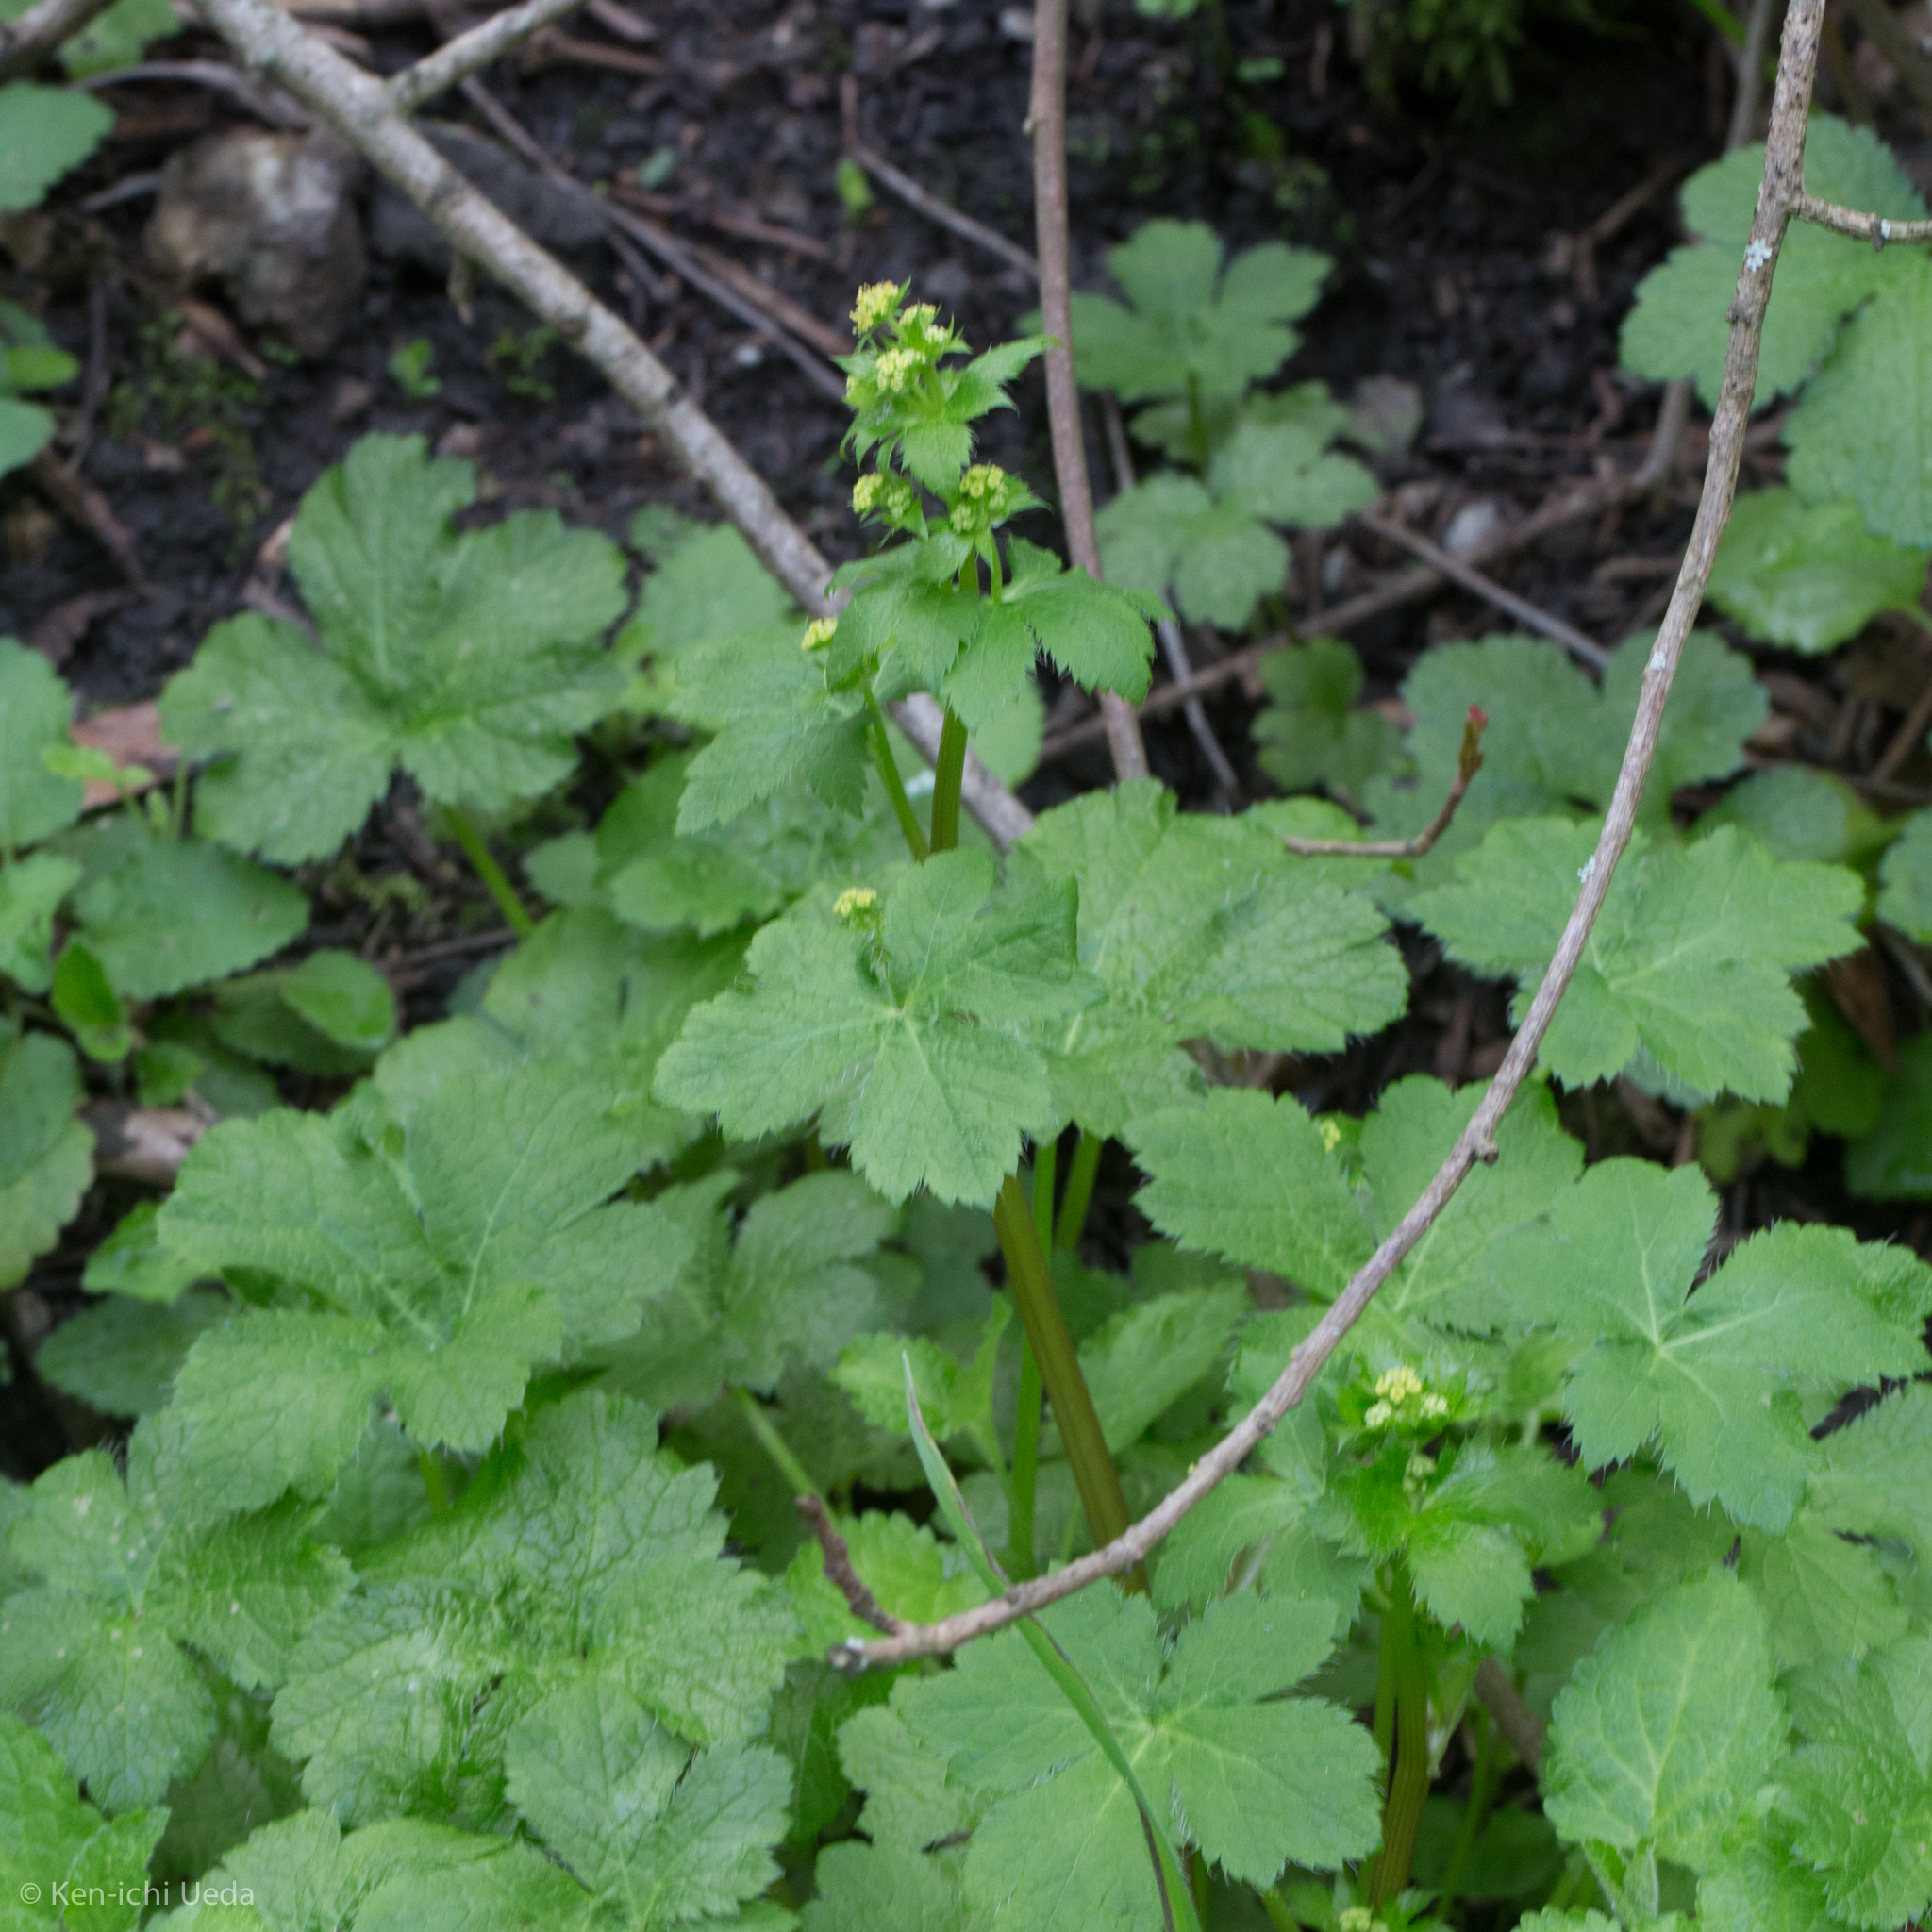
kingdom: Plantae
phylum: Tracheophyta
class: Magnoliopsida
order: Apiales
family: Apiaceae
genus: Sanicula
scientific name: Sanicula crassicaulis
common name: Western snakeroot
